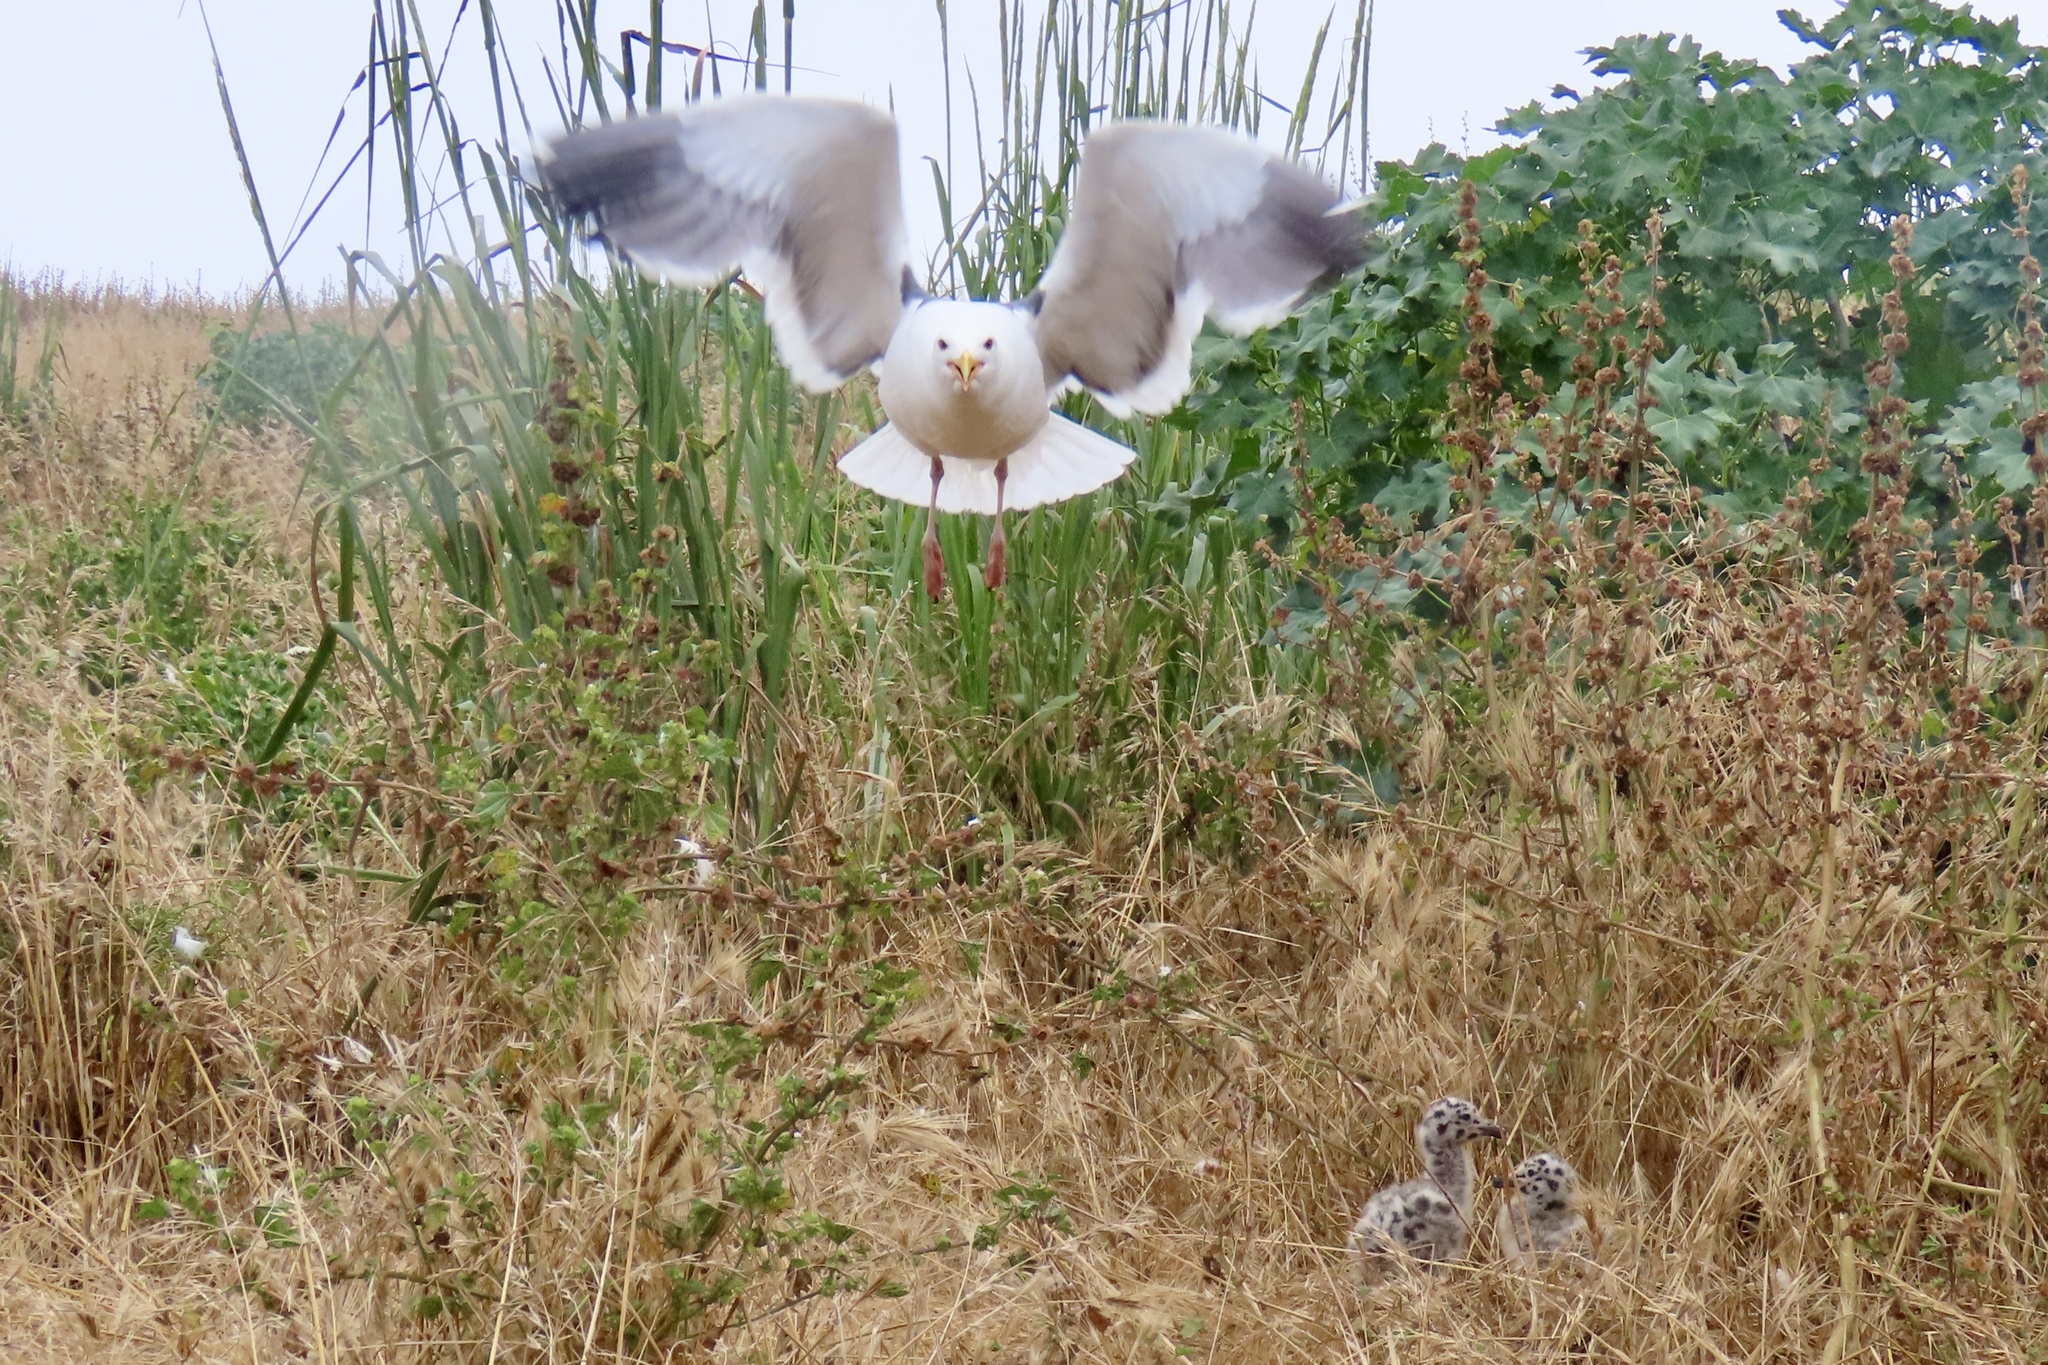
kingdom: Animalia
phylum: Chordata
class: Aves
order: Charadriiformes
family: Laridae
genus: Larus
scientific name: Larus occidentalis
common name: Western gull
